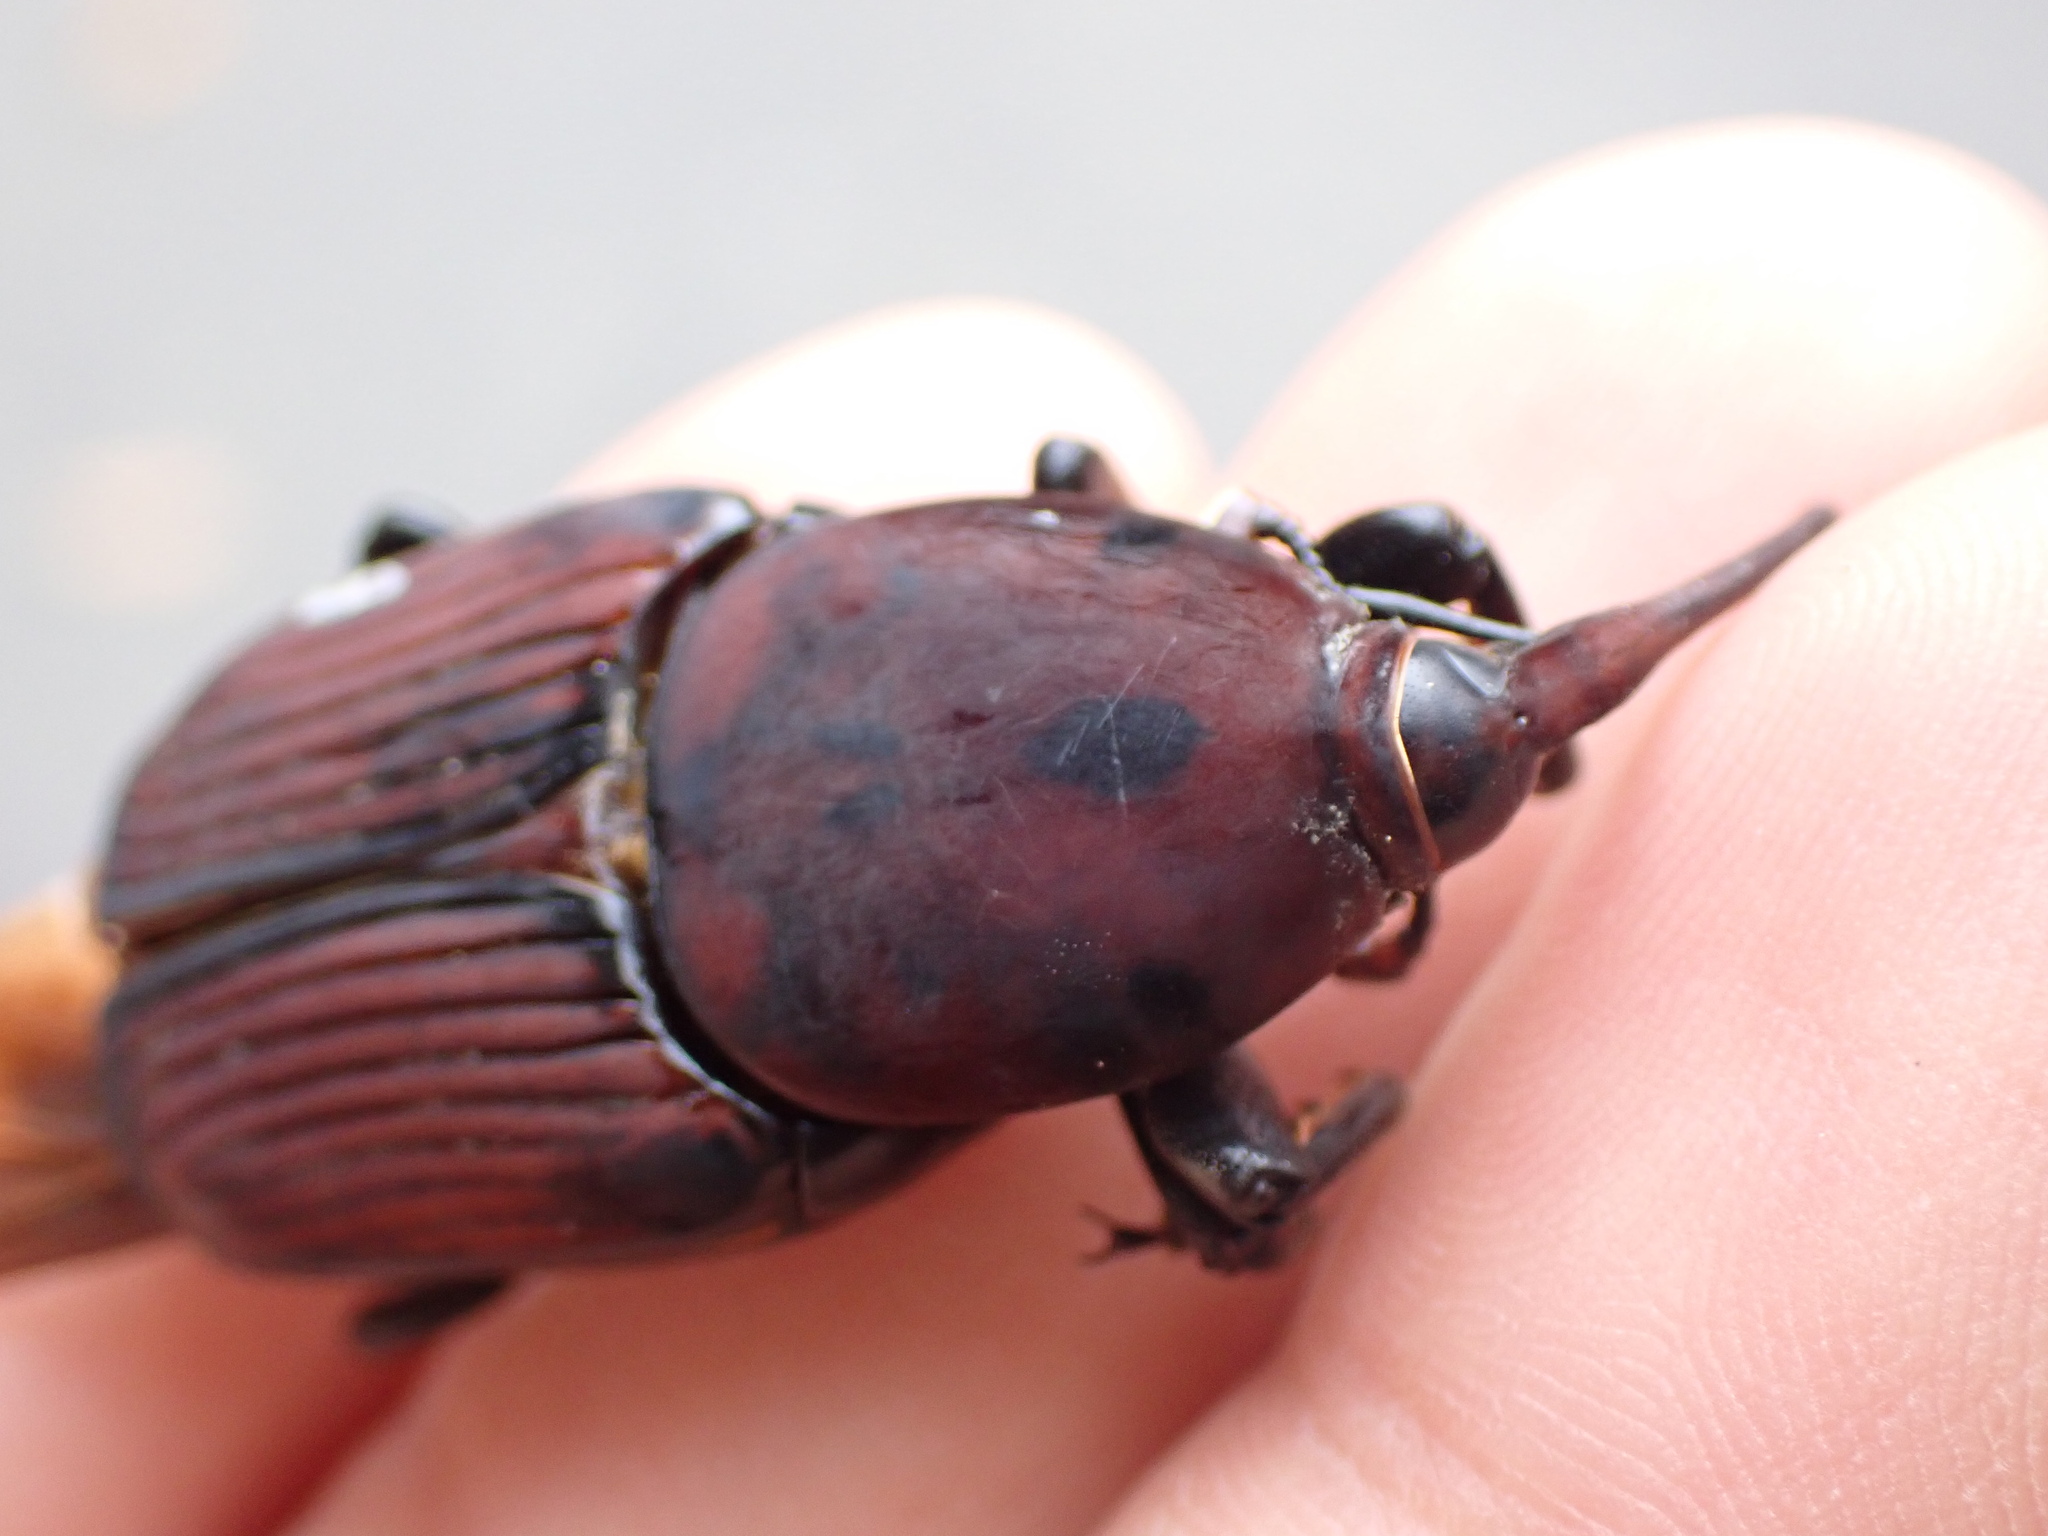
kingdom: Animalia
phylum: Arthropoda
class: Insecta
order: Coleoptera
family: Dryophthoridae
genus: Rhynchophorus
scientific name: Rhynchophorus ferrugineus
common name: Red palm weevil
